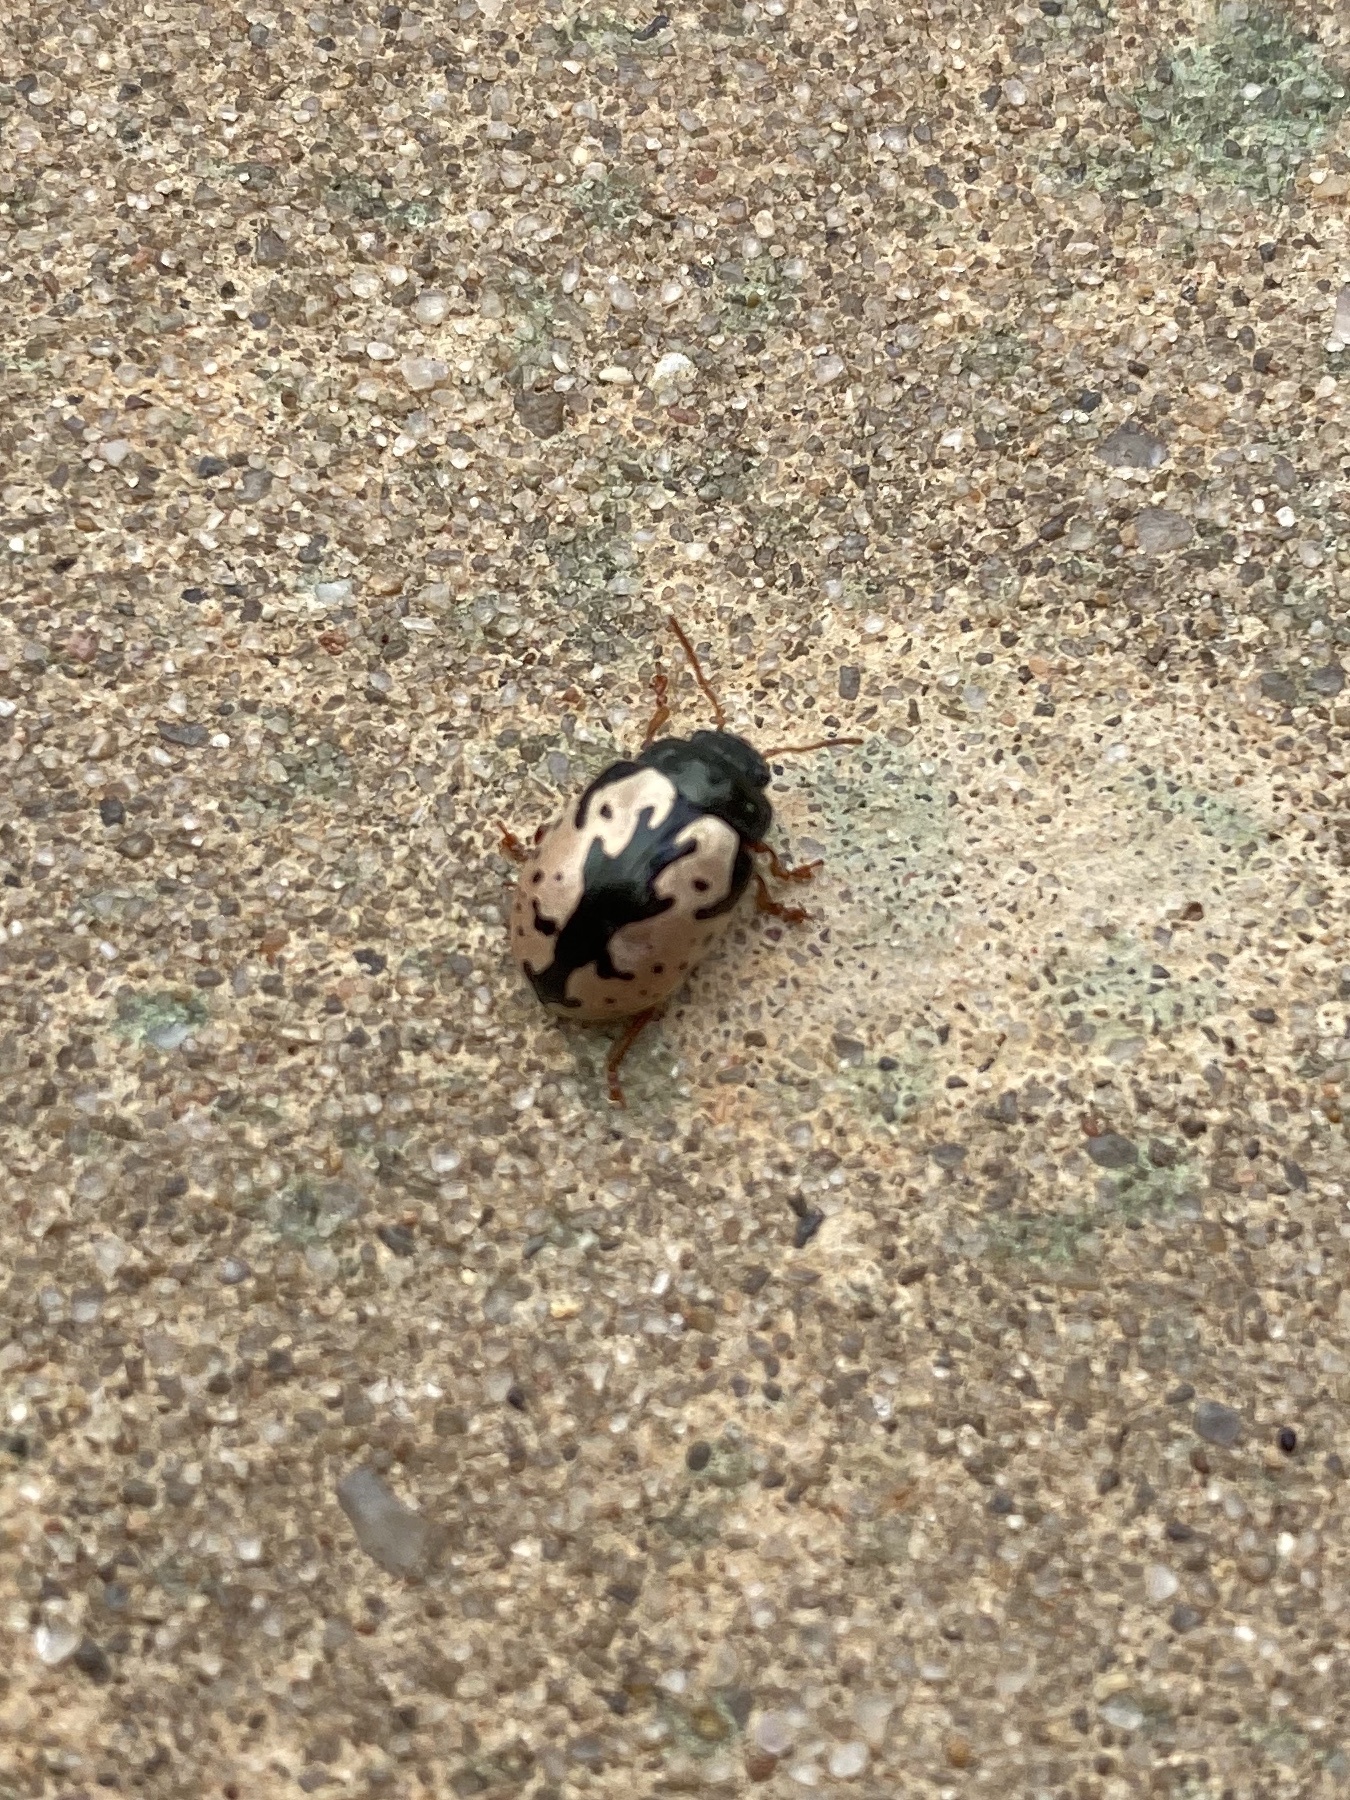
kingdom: Animalia
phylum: Arthropoda
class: Insecta
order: Coleoptera
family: Chrysomelidae
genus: Calligrapha
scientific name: Calligrapha scalaris
